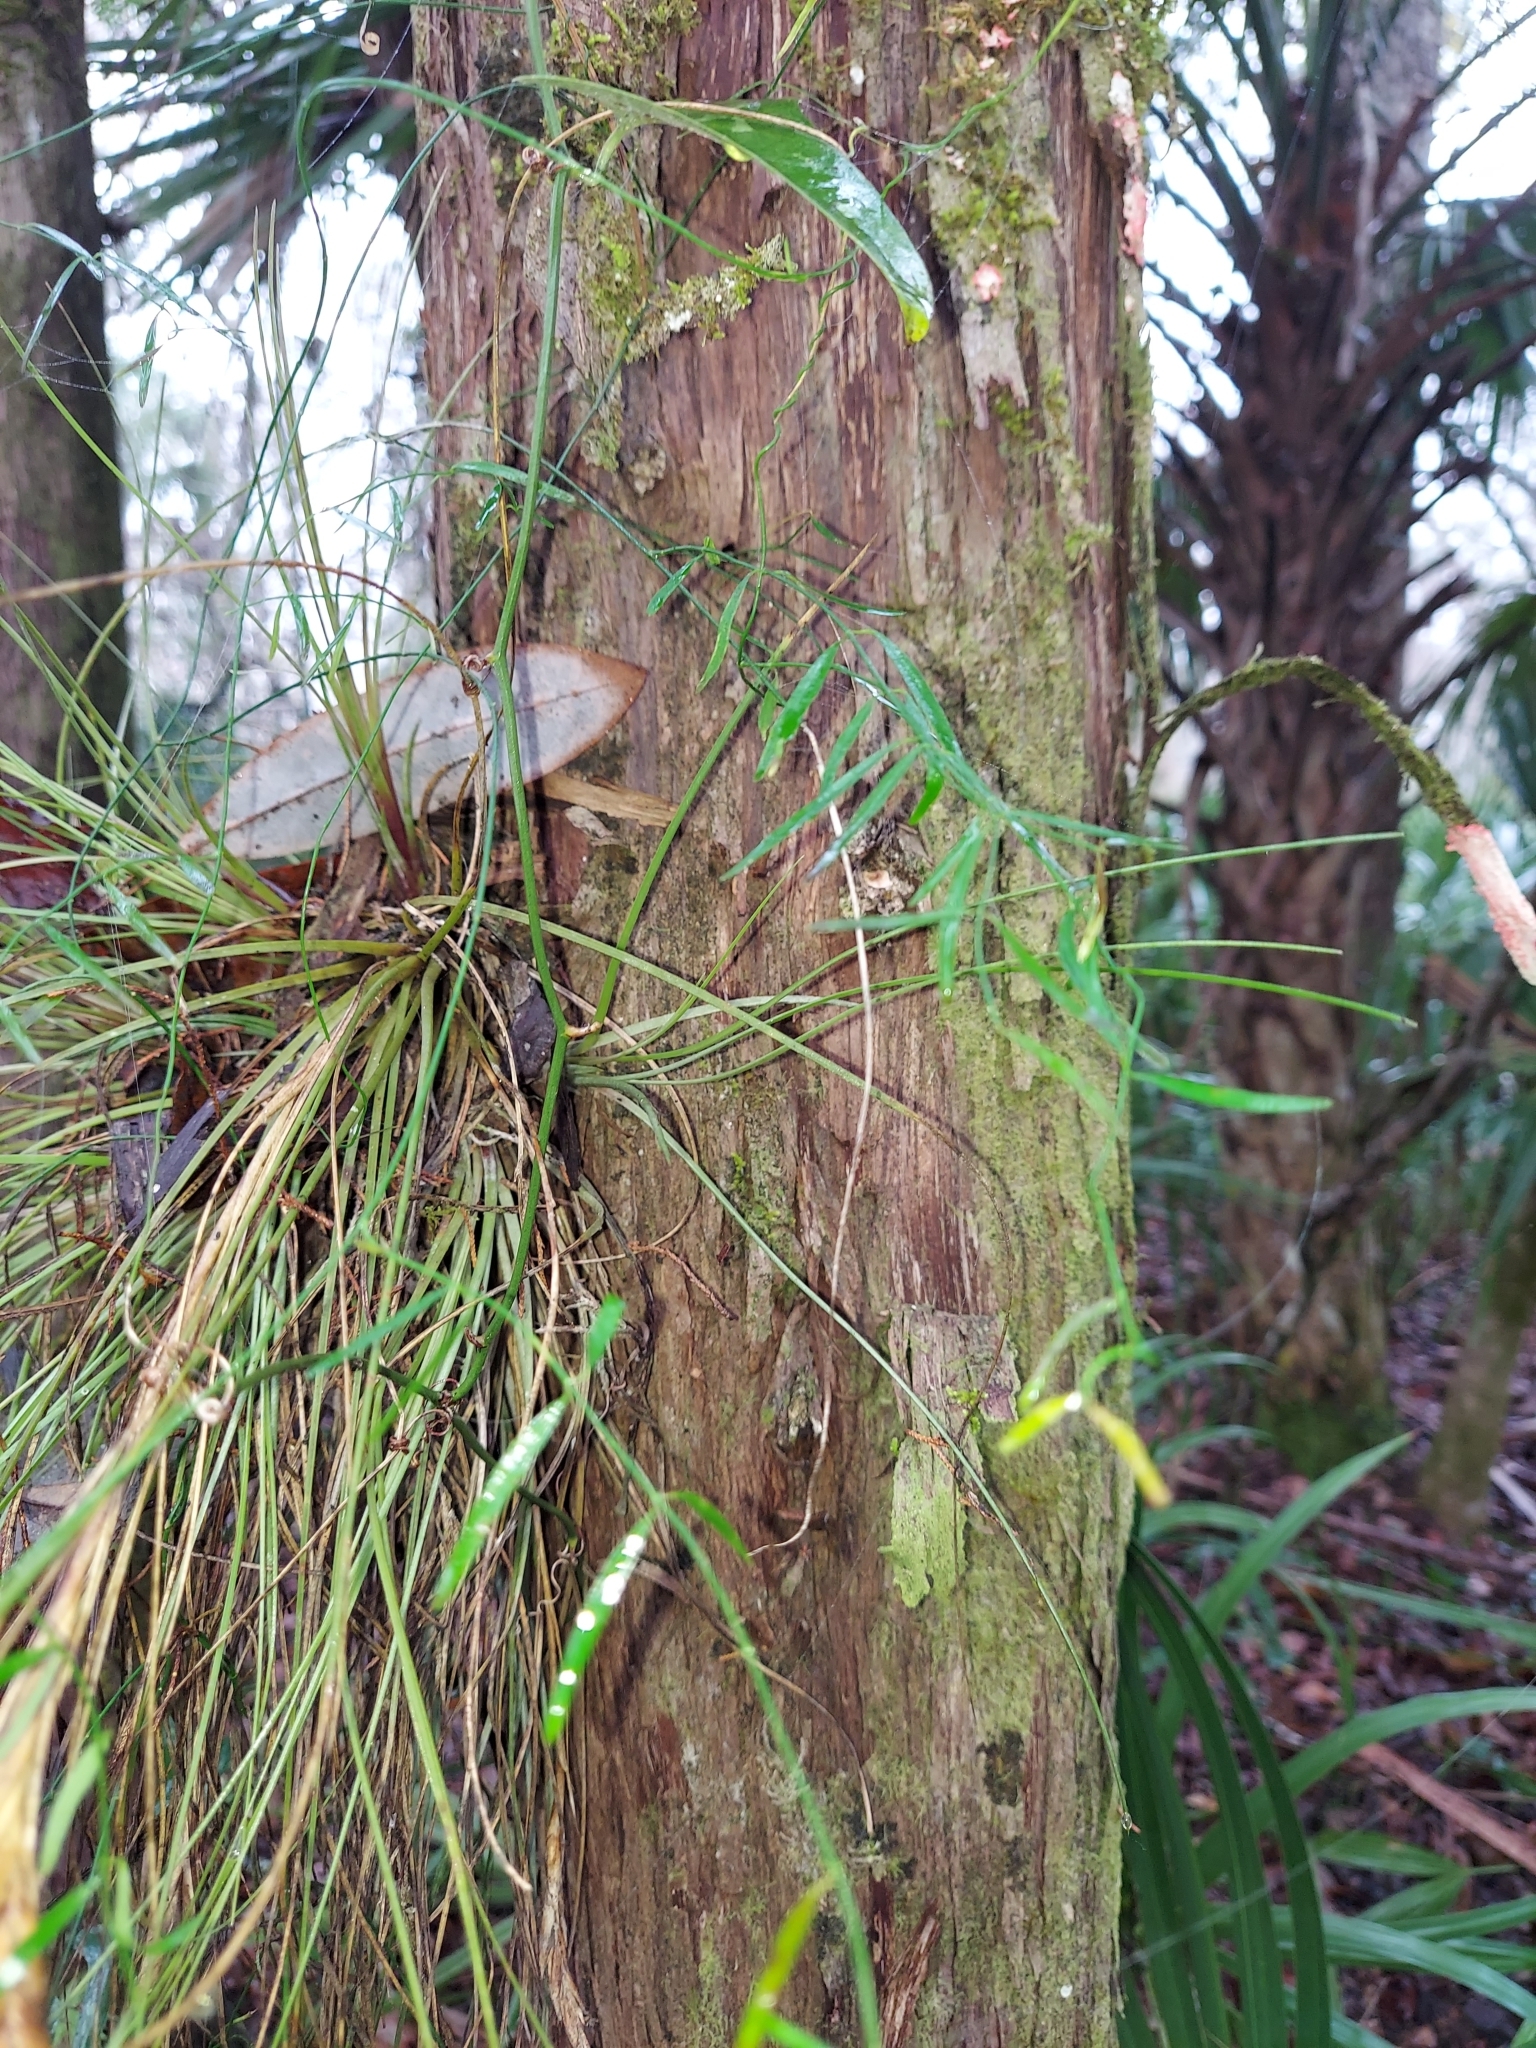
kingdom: Plantae
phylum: Tracheophyta
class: Polypodiopsida
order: Polypodiales
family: Pteridaceae
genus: Vittaria
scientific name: Vittaria lineata
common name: Shoestring fern
